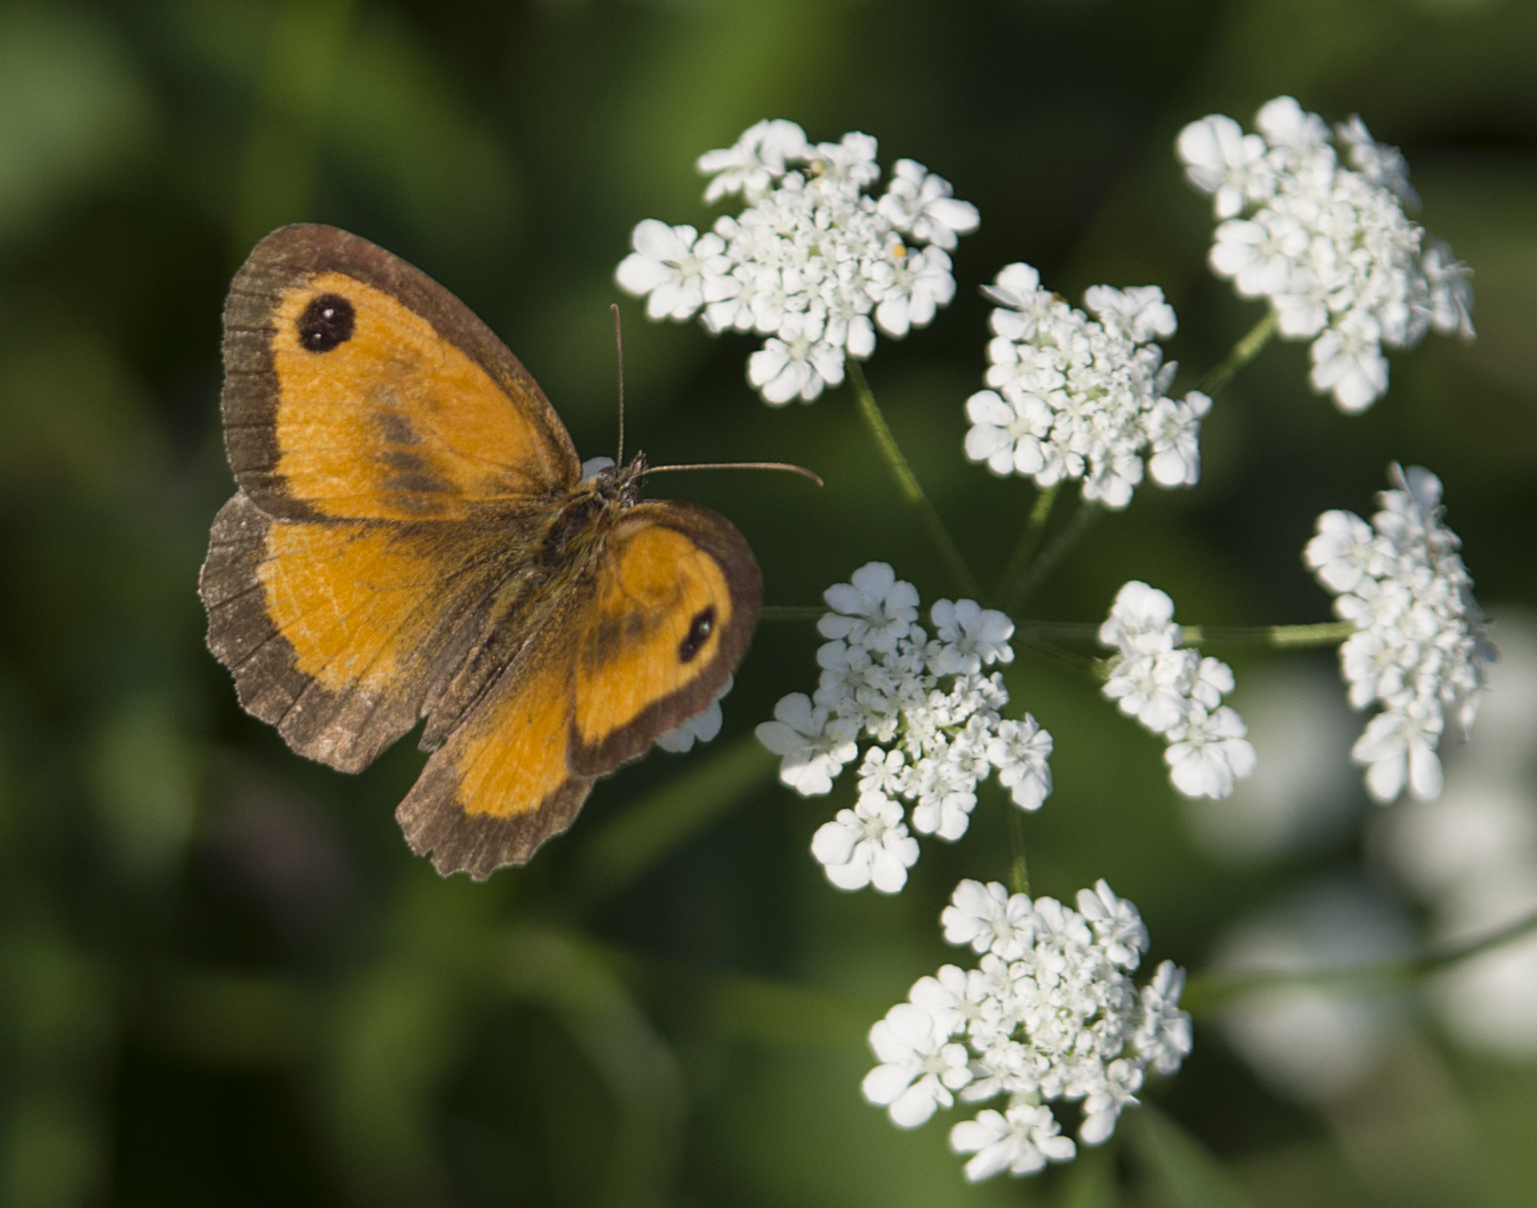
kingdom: Animalia
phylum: Arthropoda
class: Insecta
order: Lepidoptera
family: Nymphalidae
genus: Pyronia
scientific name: Pyronia tithonus
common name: Gatekeeper
